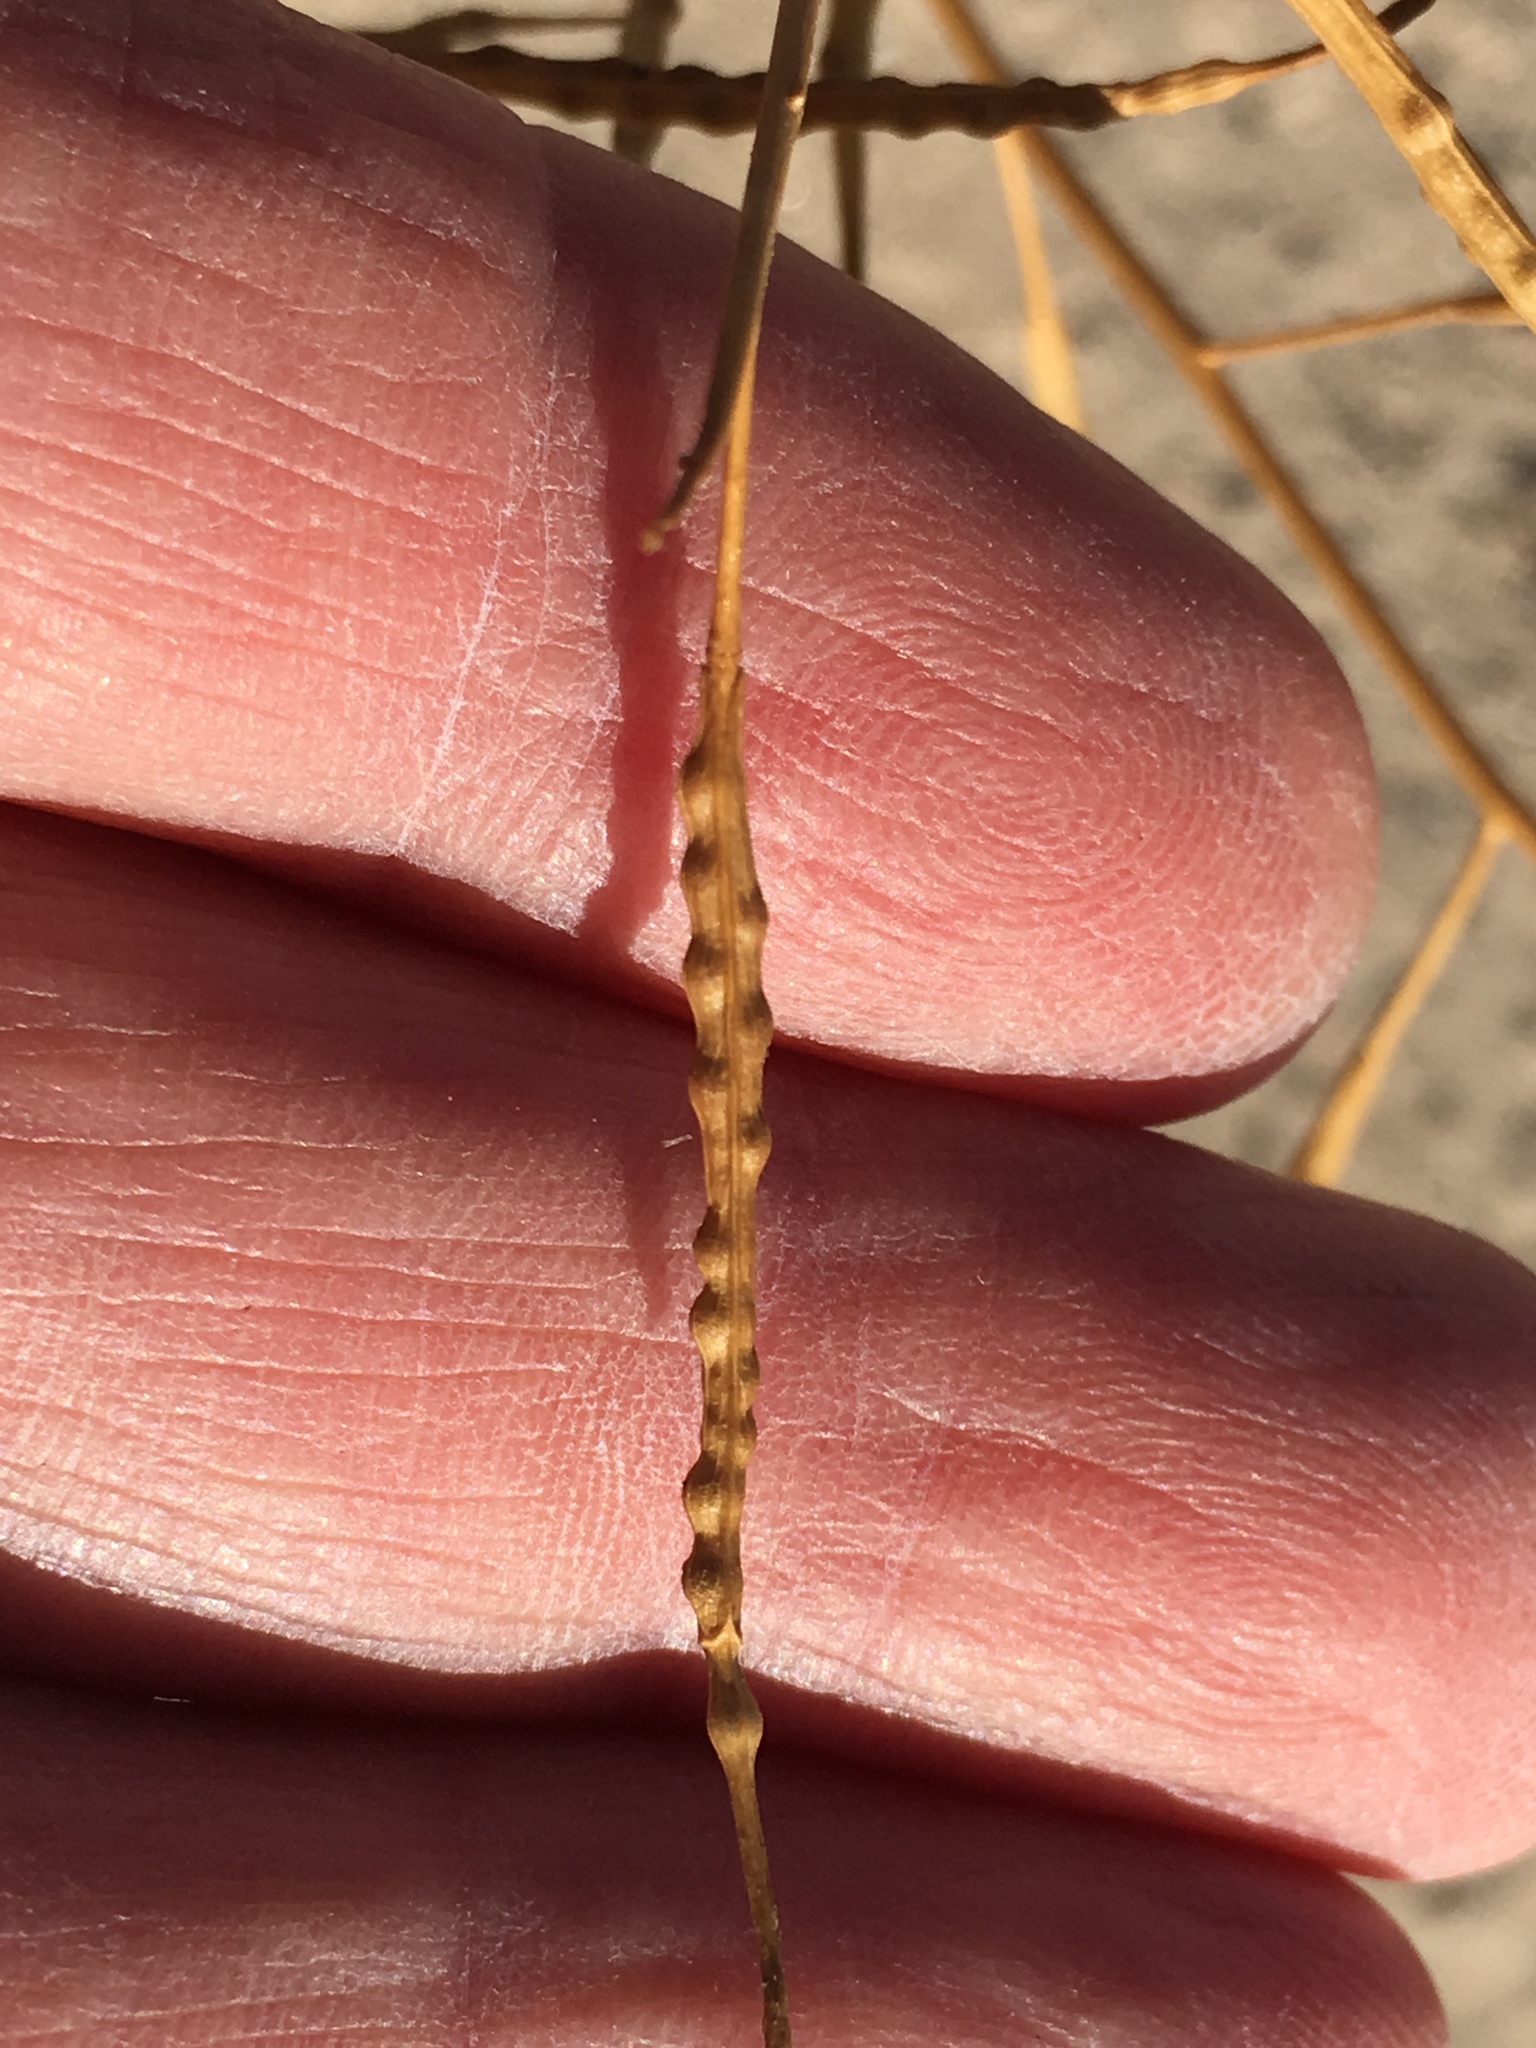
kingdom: Plantae
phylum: Tracheophyta
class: Magnoliopsida
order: Brassicales
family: Brassicaceae
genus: Brassica
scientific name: Brassica tournefortii
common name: Pale cabbage
